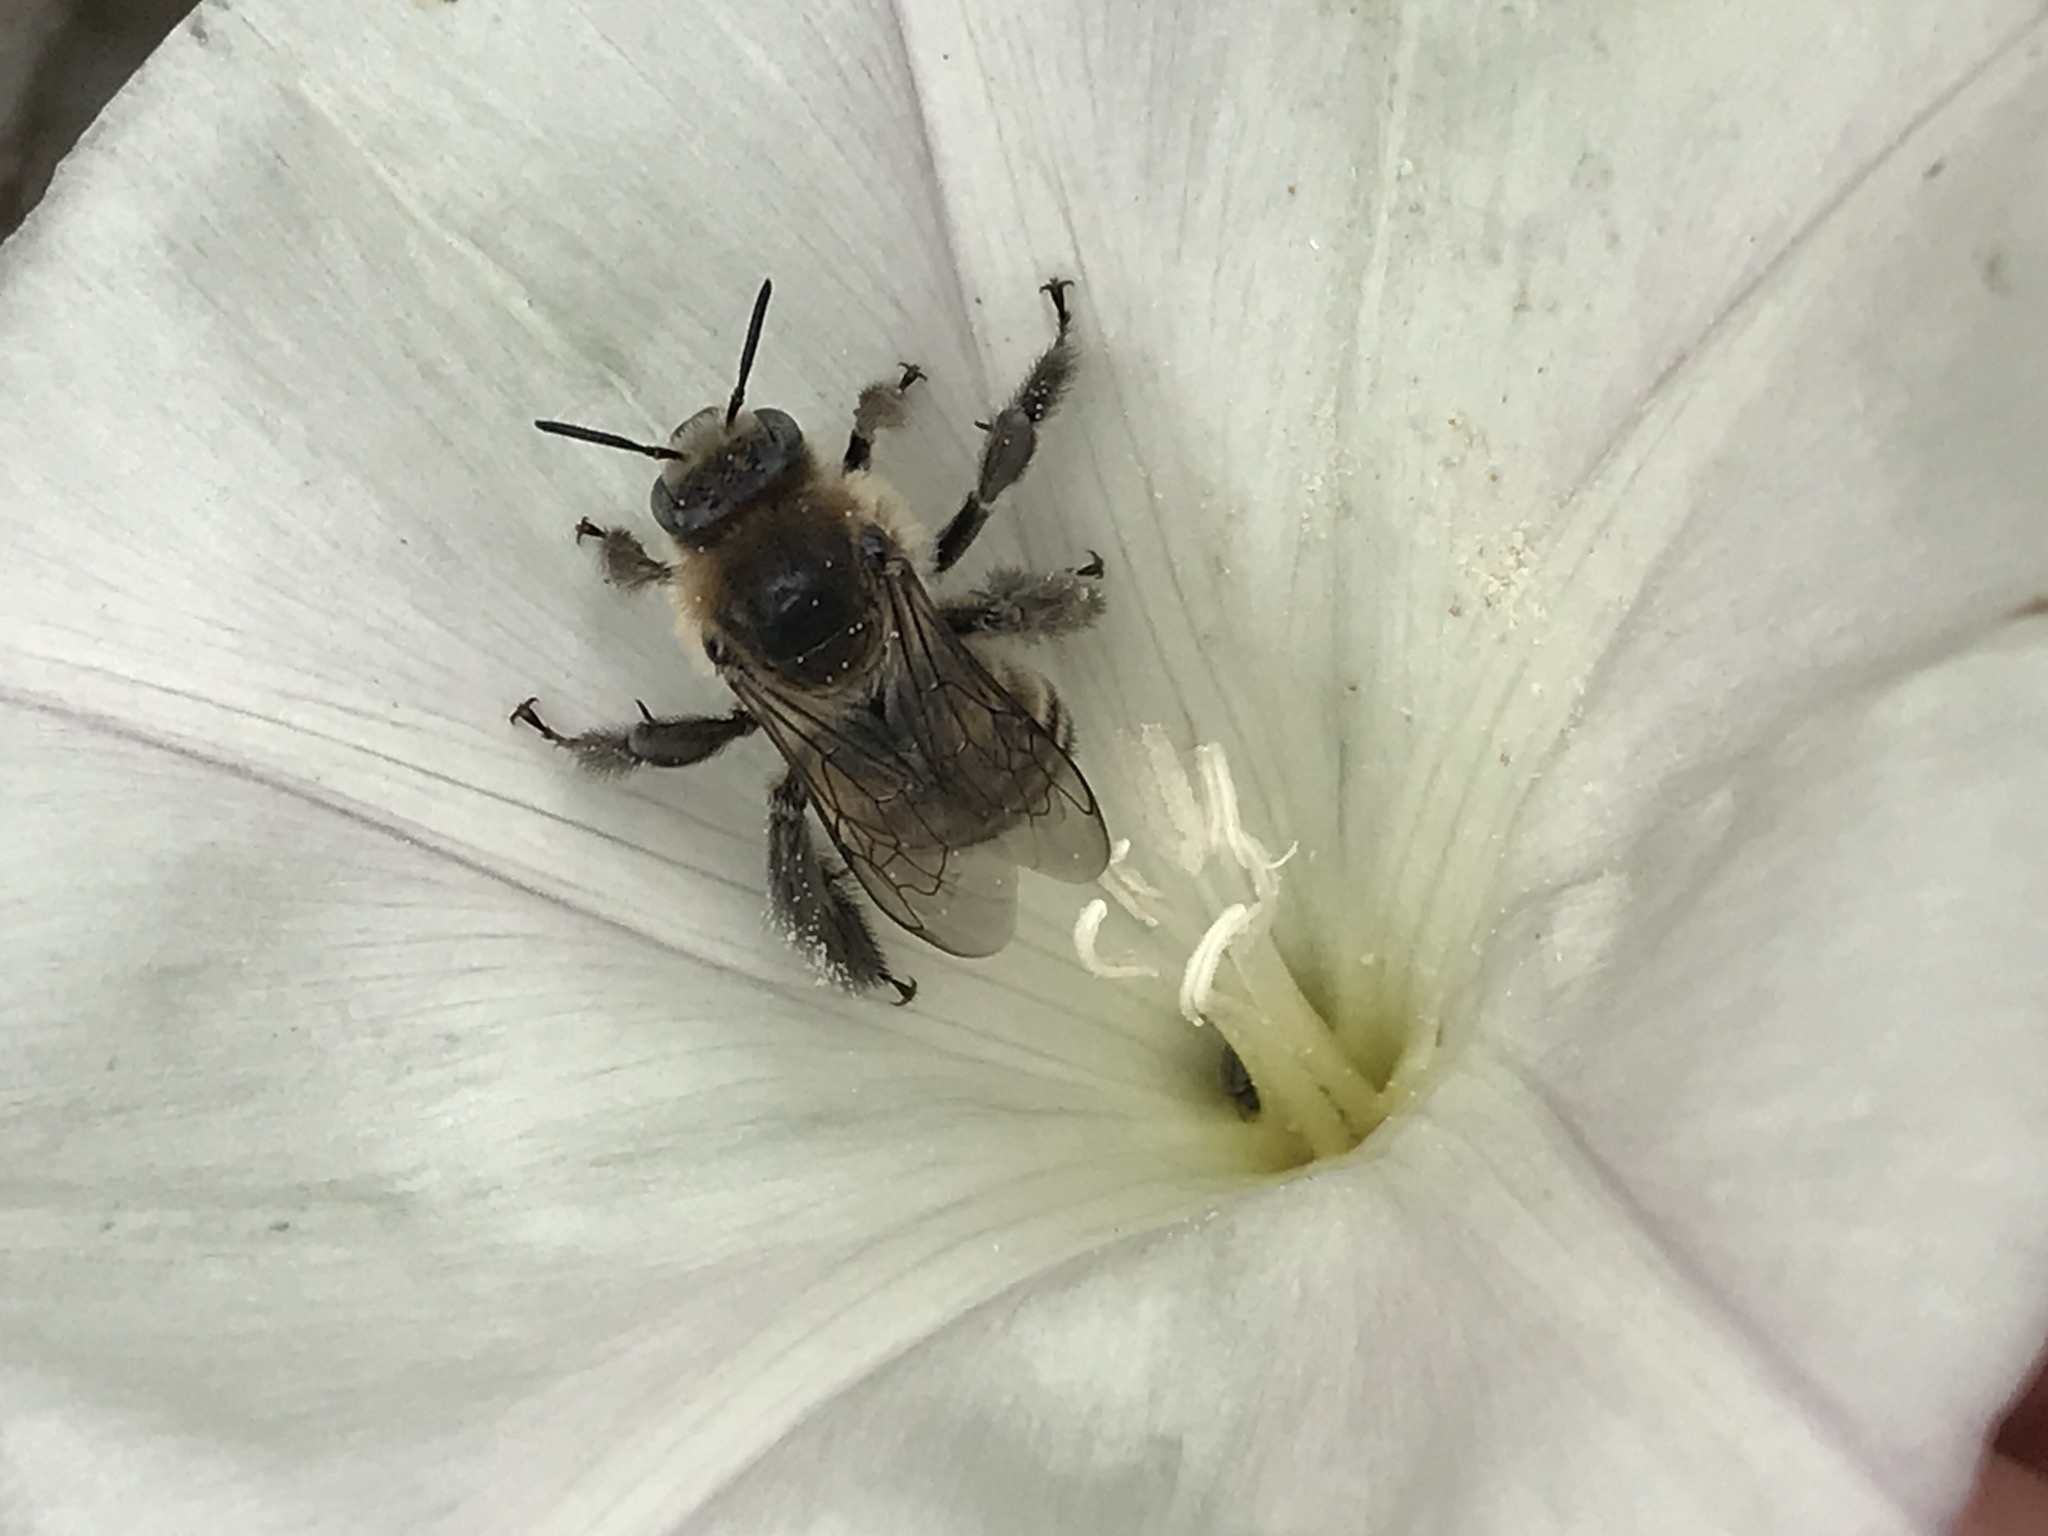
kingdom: Animalia
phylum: Arthropoda
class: Insecta
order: Hymenoptera
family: Apidae
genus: Diadasia
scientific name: Diadasia bituberculata
